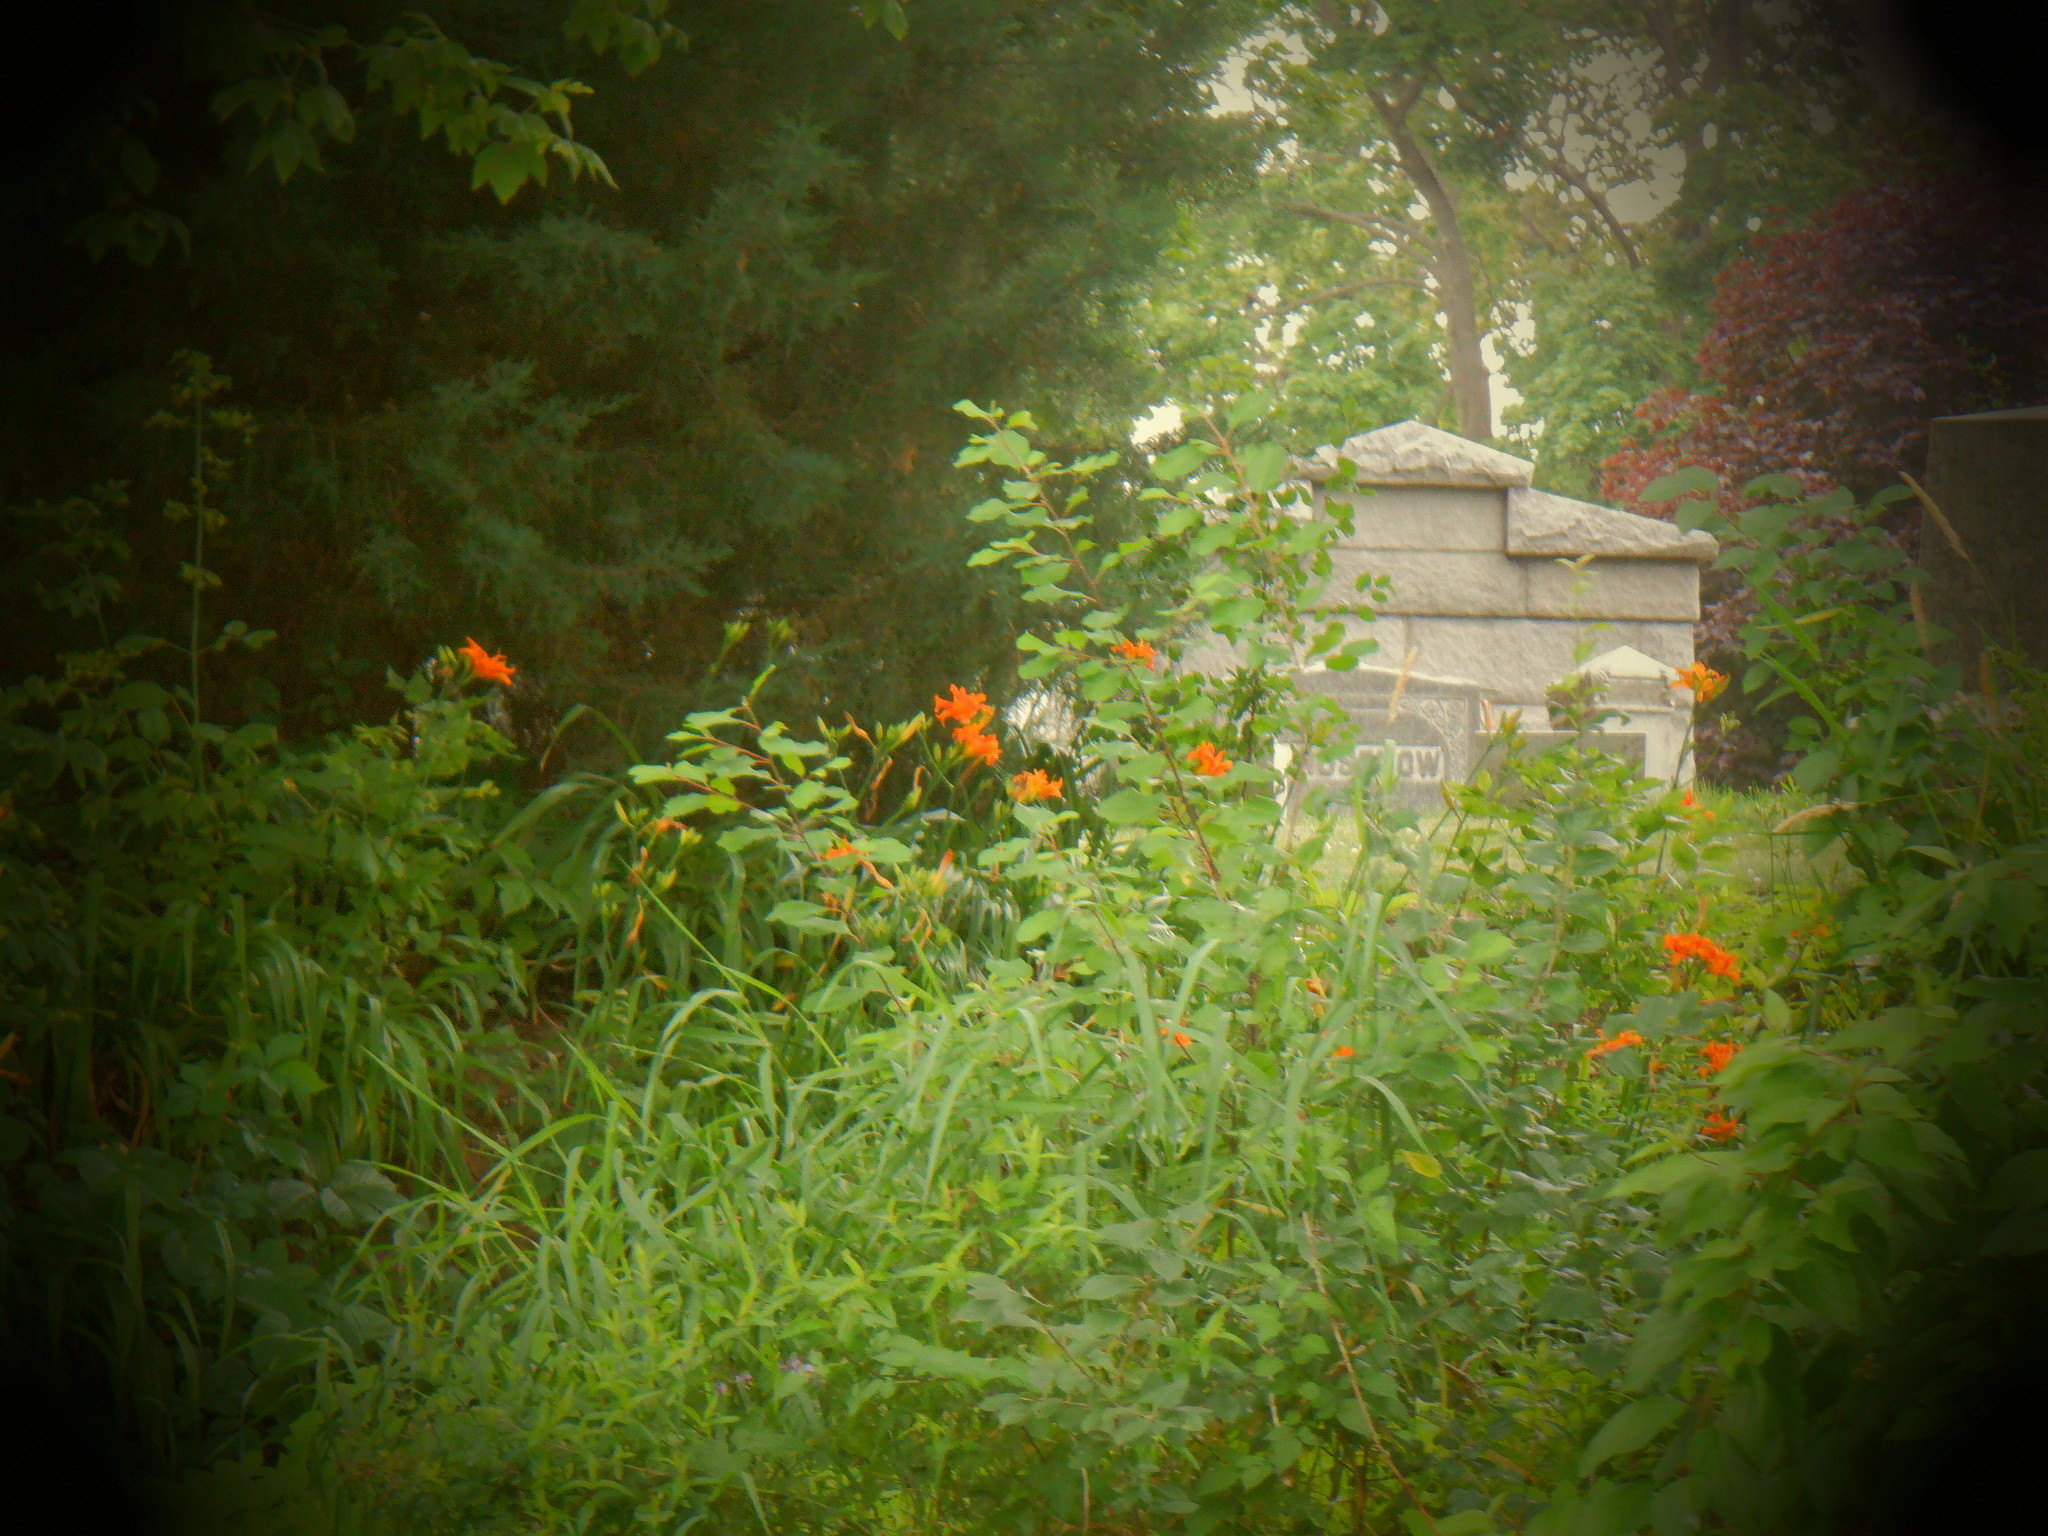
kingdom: Plantae
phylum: Tracheophyta
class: Liliopsida
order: Asparagales
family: Asphodelaceae
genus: Hemerocallis
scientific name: Hemerocallis fulva
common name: Orange day-lily
